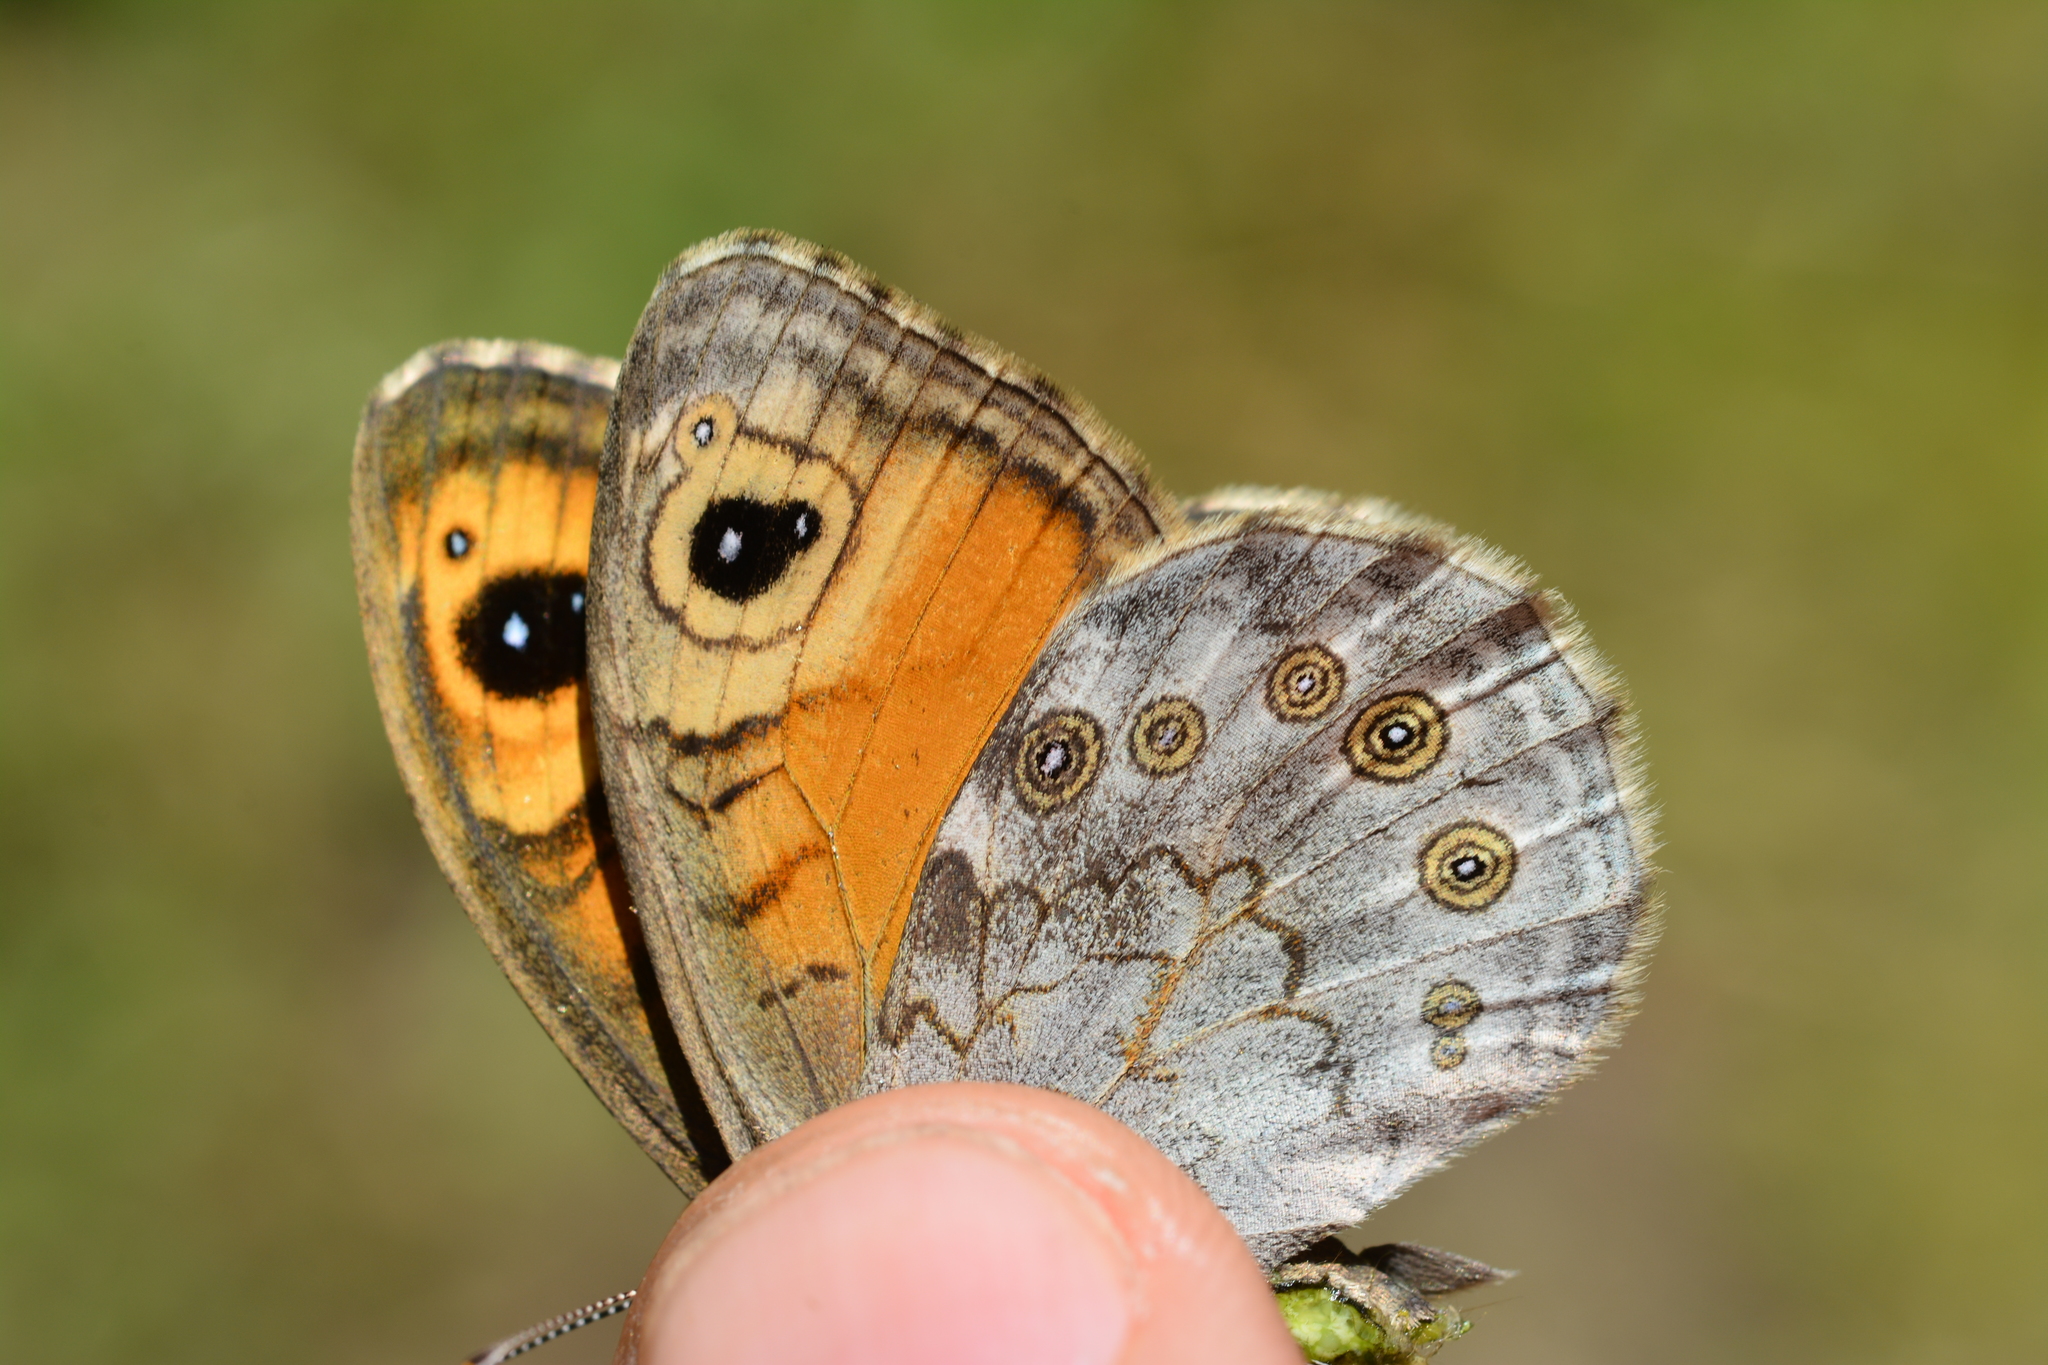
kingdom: Animalia
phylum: Arthropoda
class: Insecta
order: Lepidoptera
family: Nymphalidae
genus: Pararge
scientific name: Pararge Lasiommata maera
